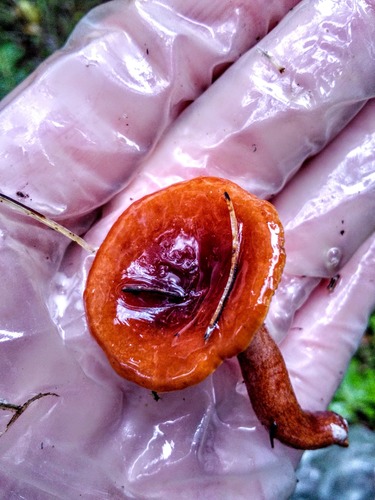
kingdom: Fungi
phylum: Basidiomycota
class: Agaricomycetes
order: Russulales
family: Russulaceae
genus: Lactarius
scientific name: Lactarius rufus
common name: Rufous milk-cap
